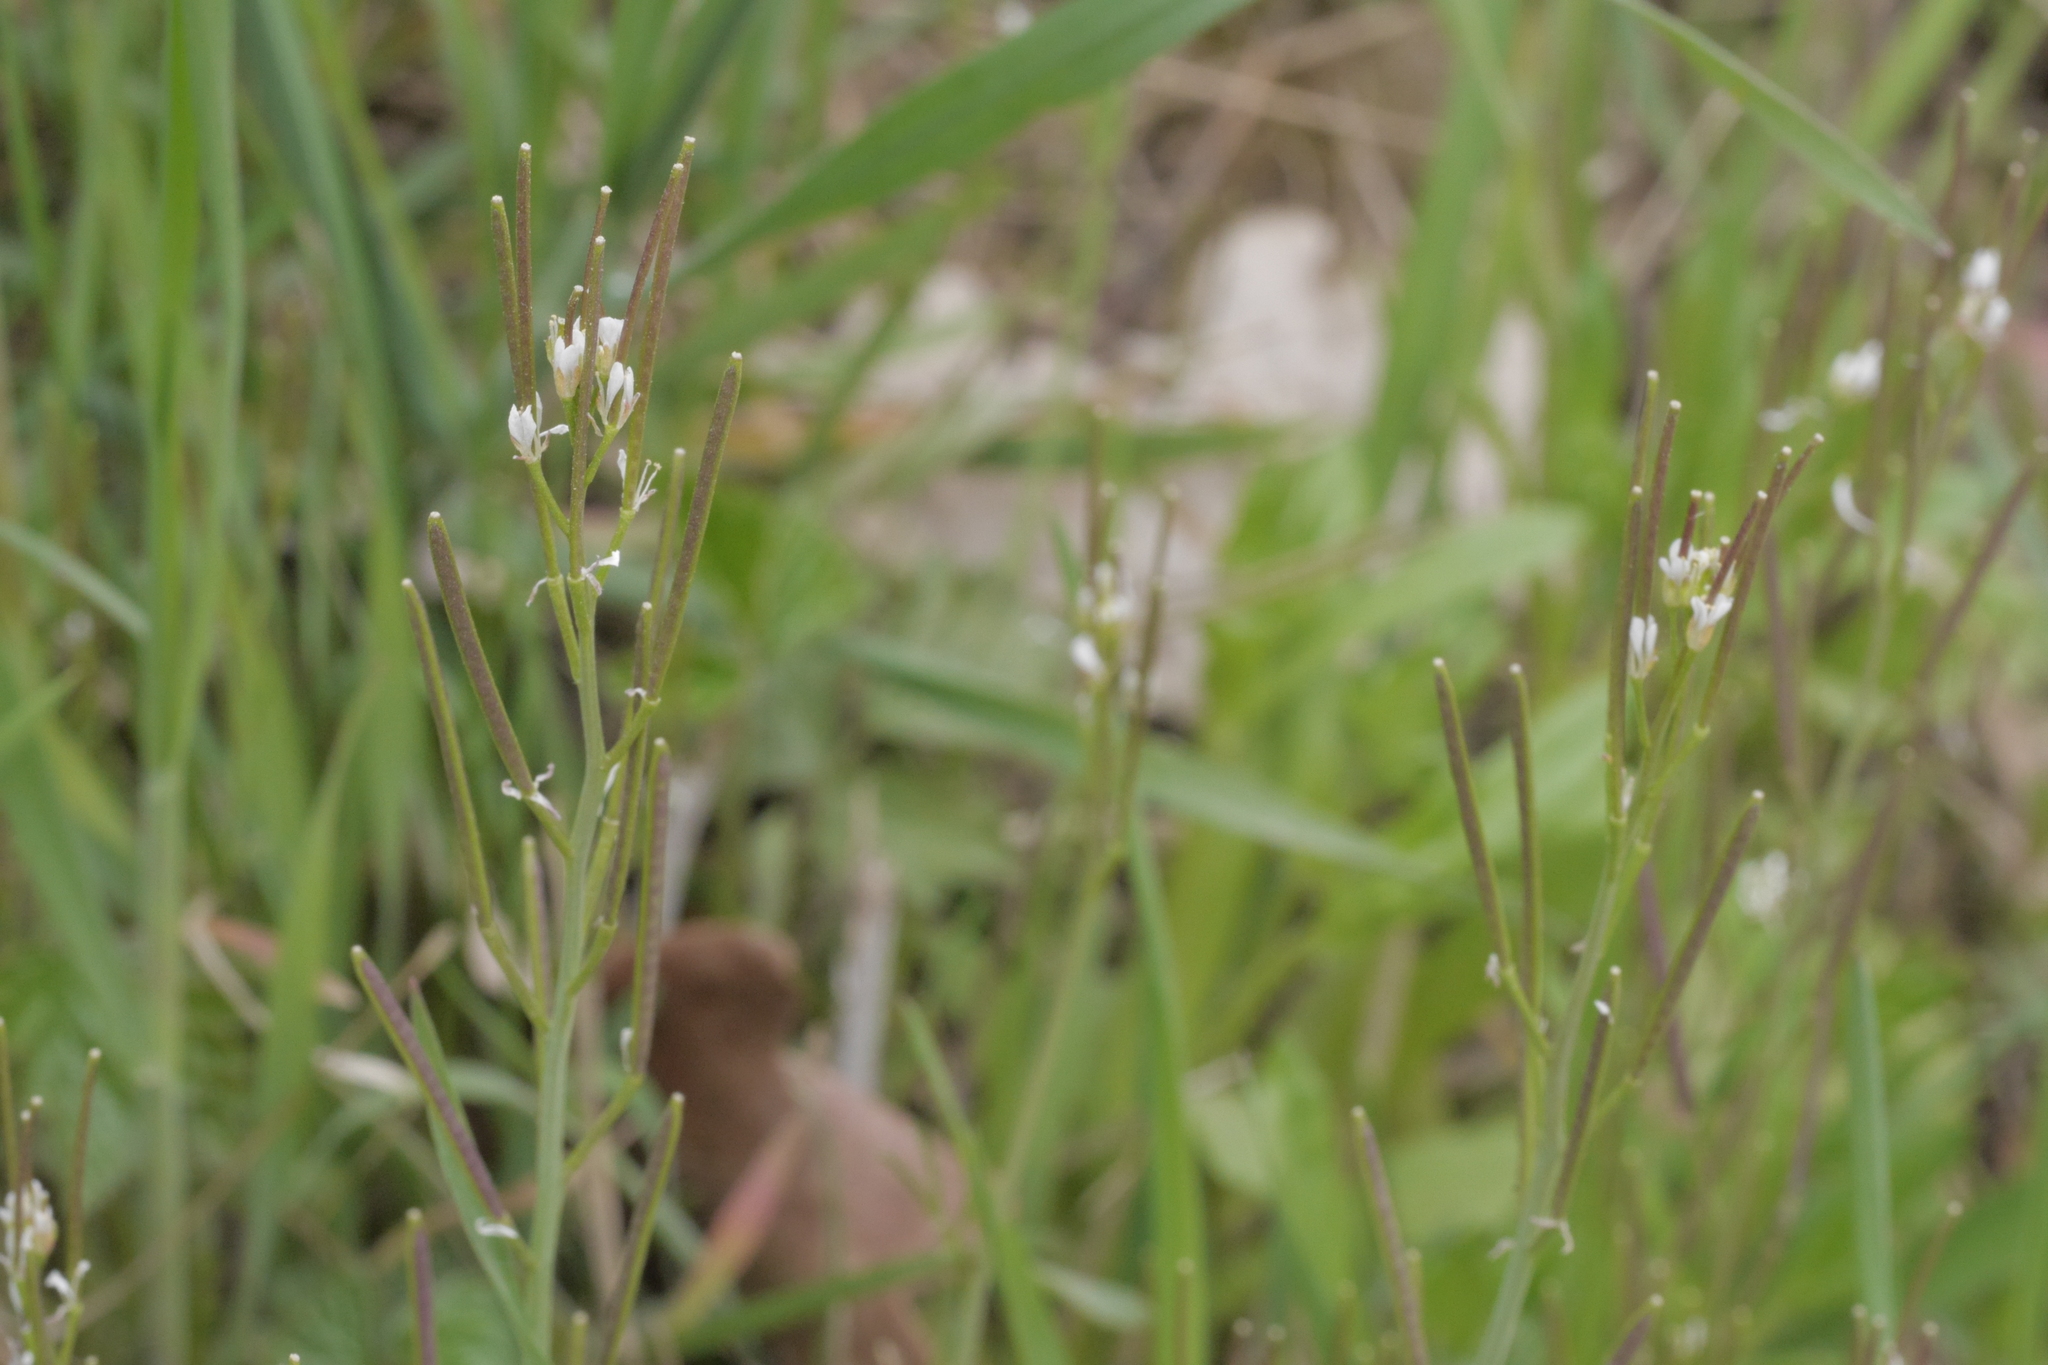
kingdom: Plantae
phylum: Tracheophyta
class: Magnoliopsida
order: Brassicales
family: Brassicaceae
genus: Cardamine
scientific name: Cardamine hirsuta
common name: Hairy bittercress
